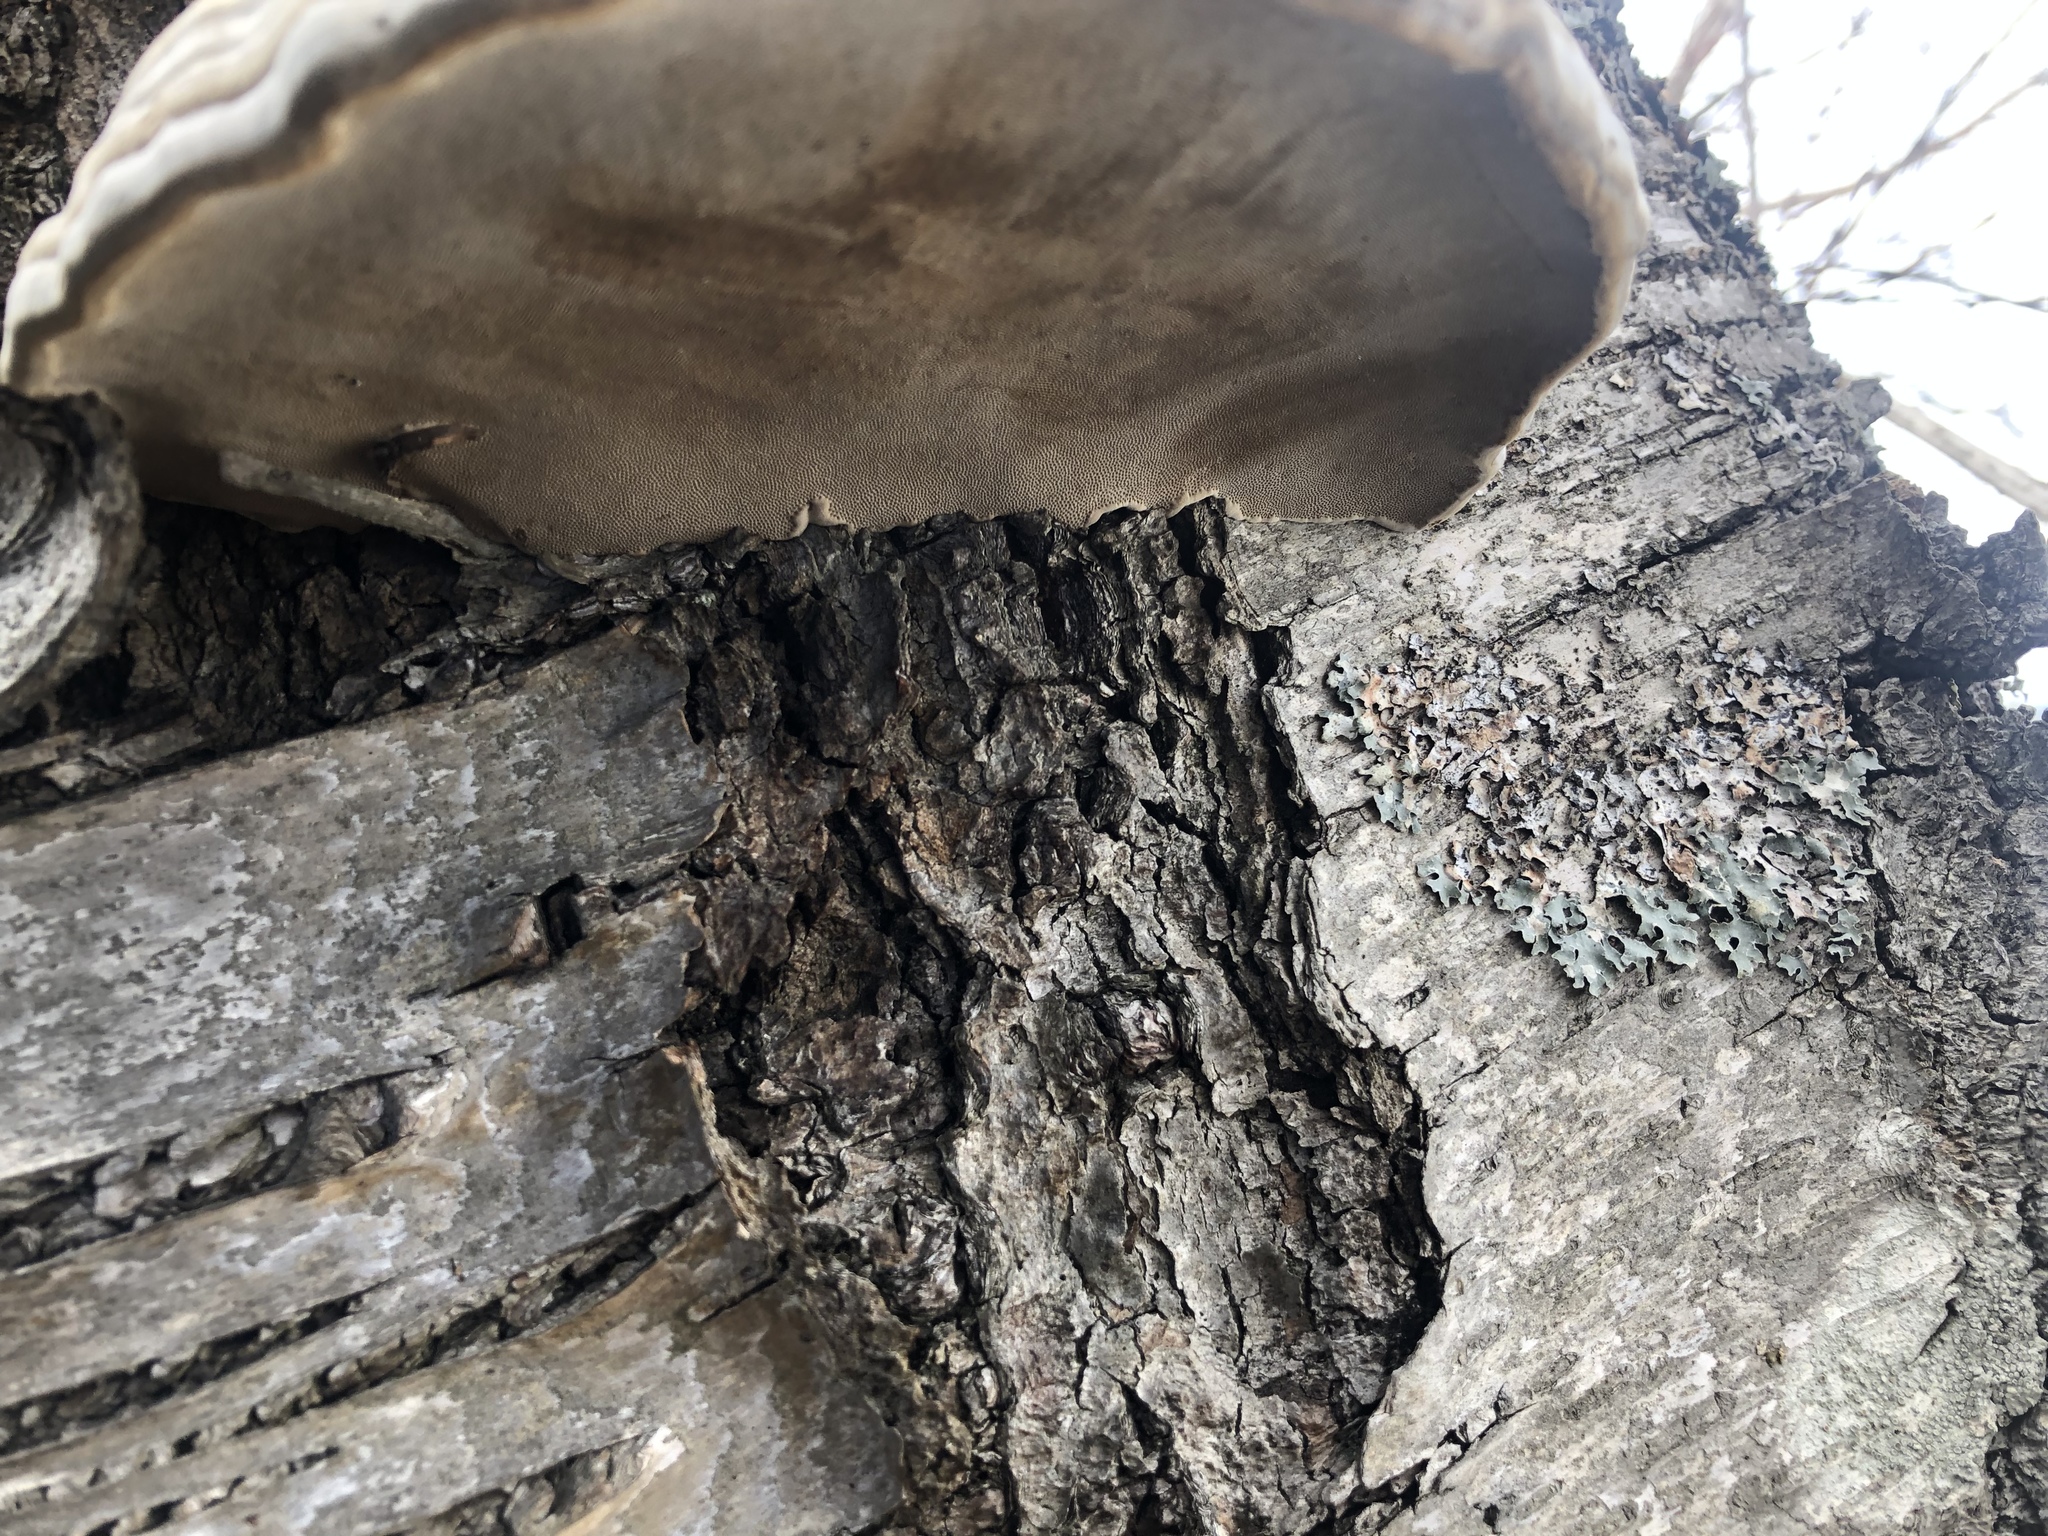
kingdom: Fungi
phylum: Basidiomycota
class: Agaricomycetes
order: Polyporales
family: Polyporaceae
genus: Fomes
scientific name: Fomes fomentarius
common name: Hoof fungus
